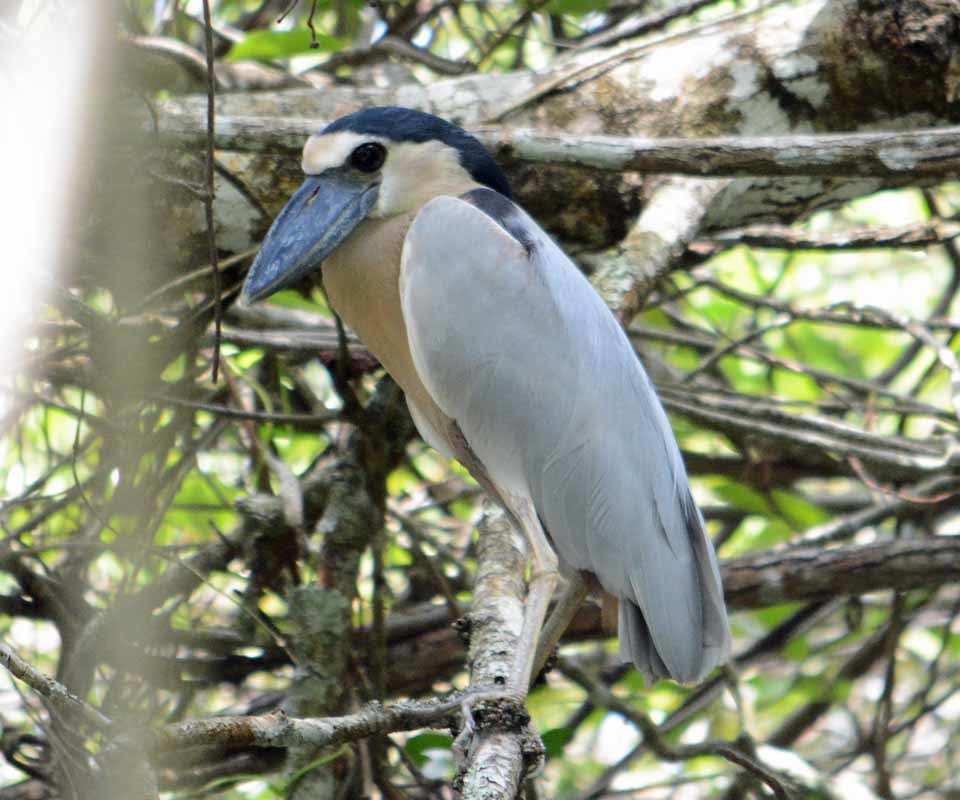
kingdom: Animalia
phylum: Chordata
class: Aves
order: Pelecaniformes
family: Ardeidae
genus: Cochlearius
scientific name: Cochlearius cochlearius
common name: Boat-billed heron
